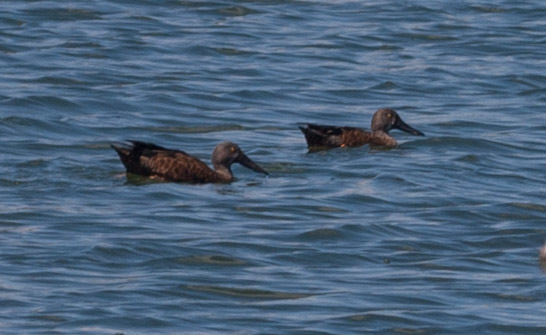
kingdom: Animalia
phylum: Chordata
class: Aves
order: Anseriformes
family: Anatidae
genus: Spatula
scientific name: Spatula rhynchotis
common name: Australian shoveler
